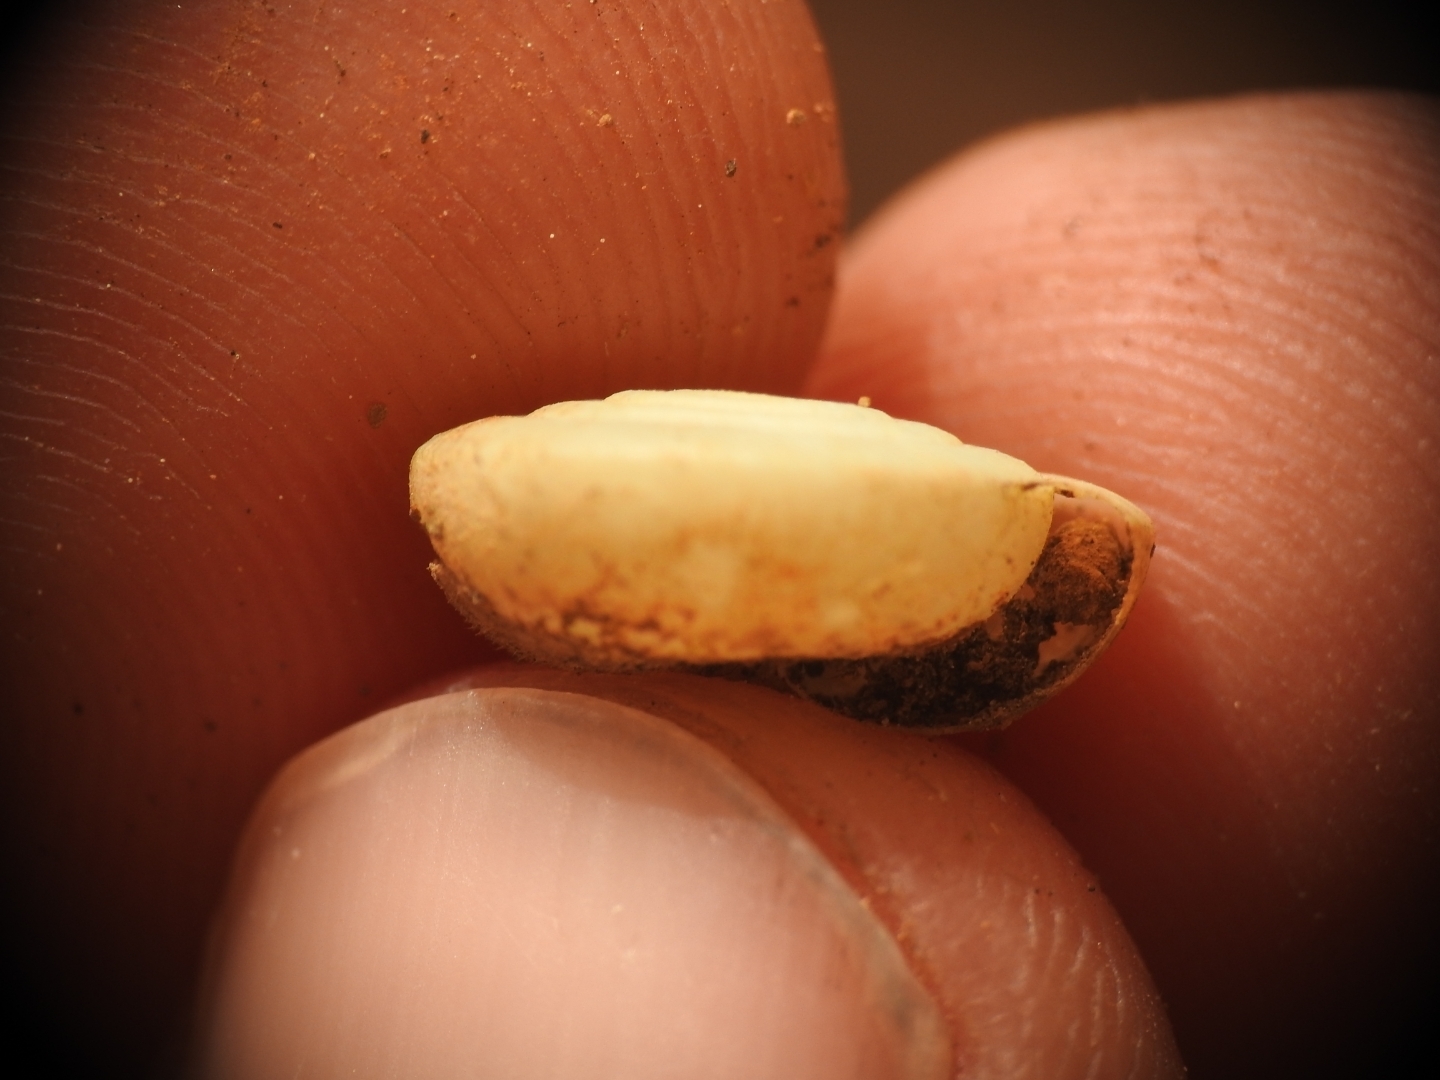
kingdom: Animalia
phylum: Mollusca
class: Gastropoda
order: Stylommatophora
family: Helicodontidae
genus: Lindholmiola
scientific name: Lindholmiola barbata
